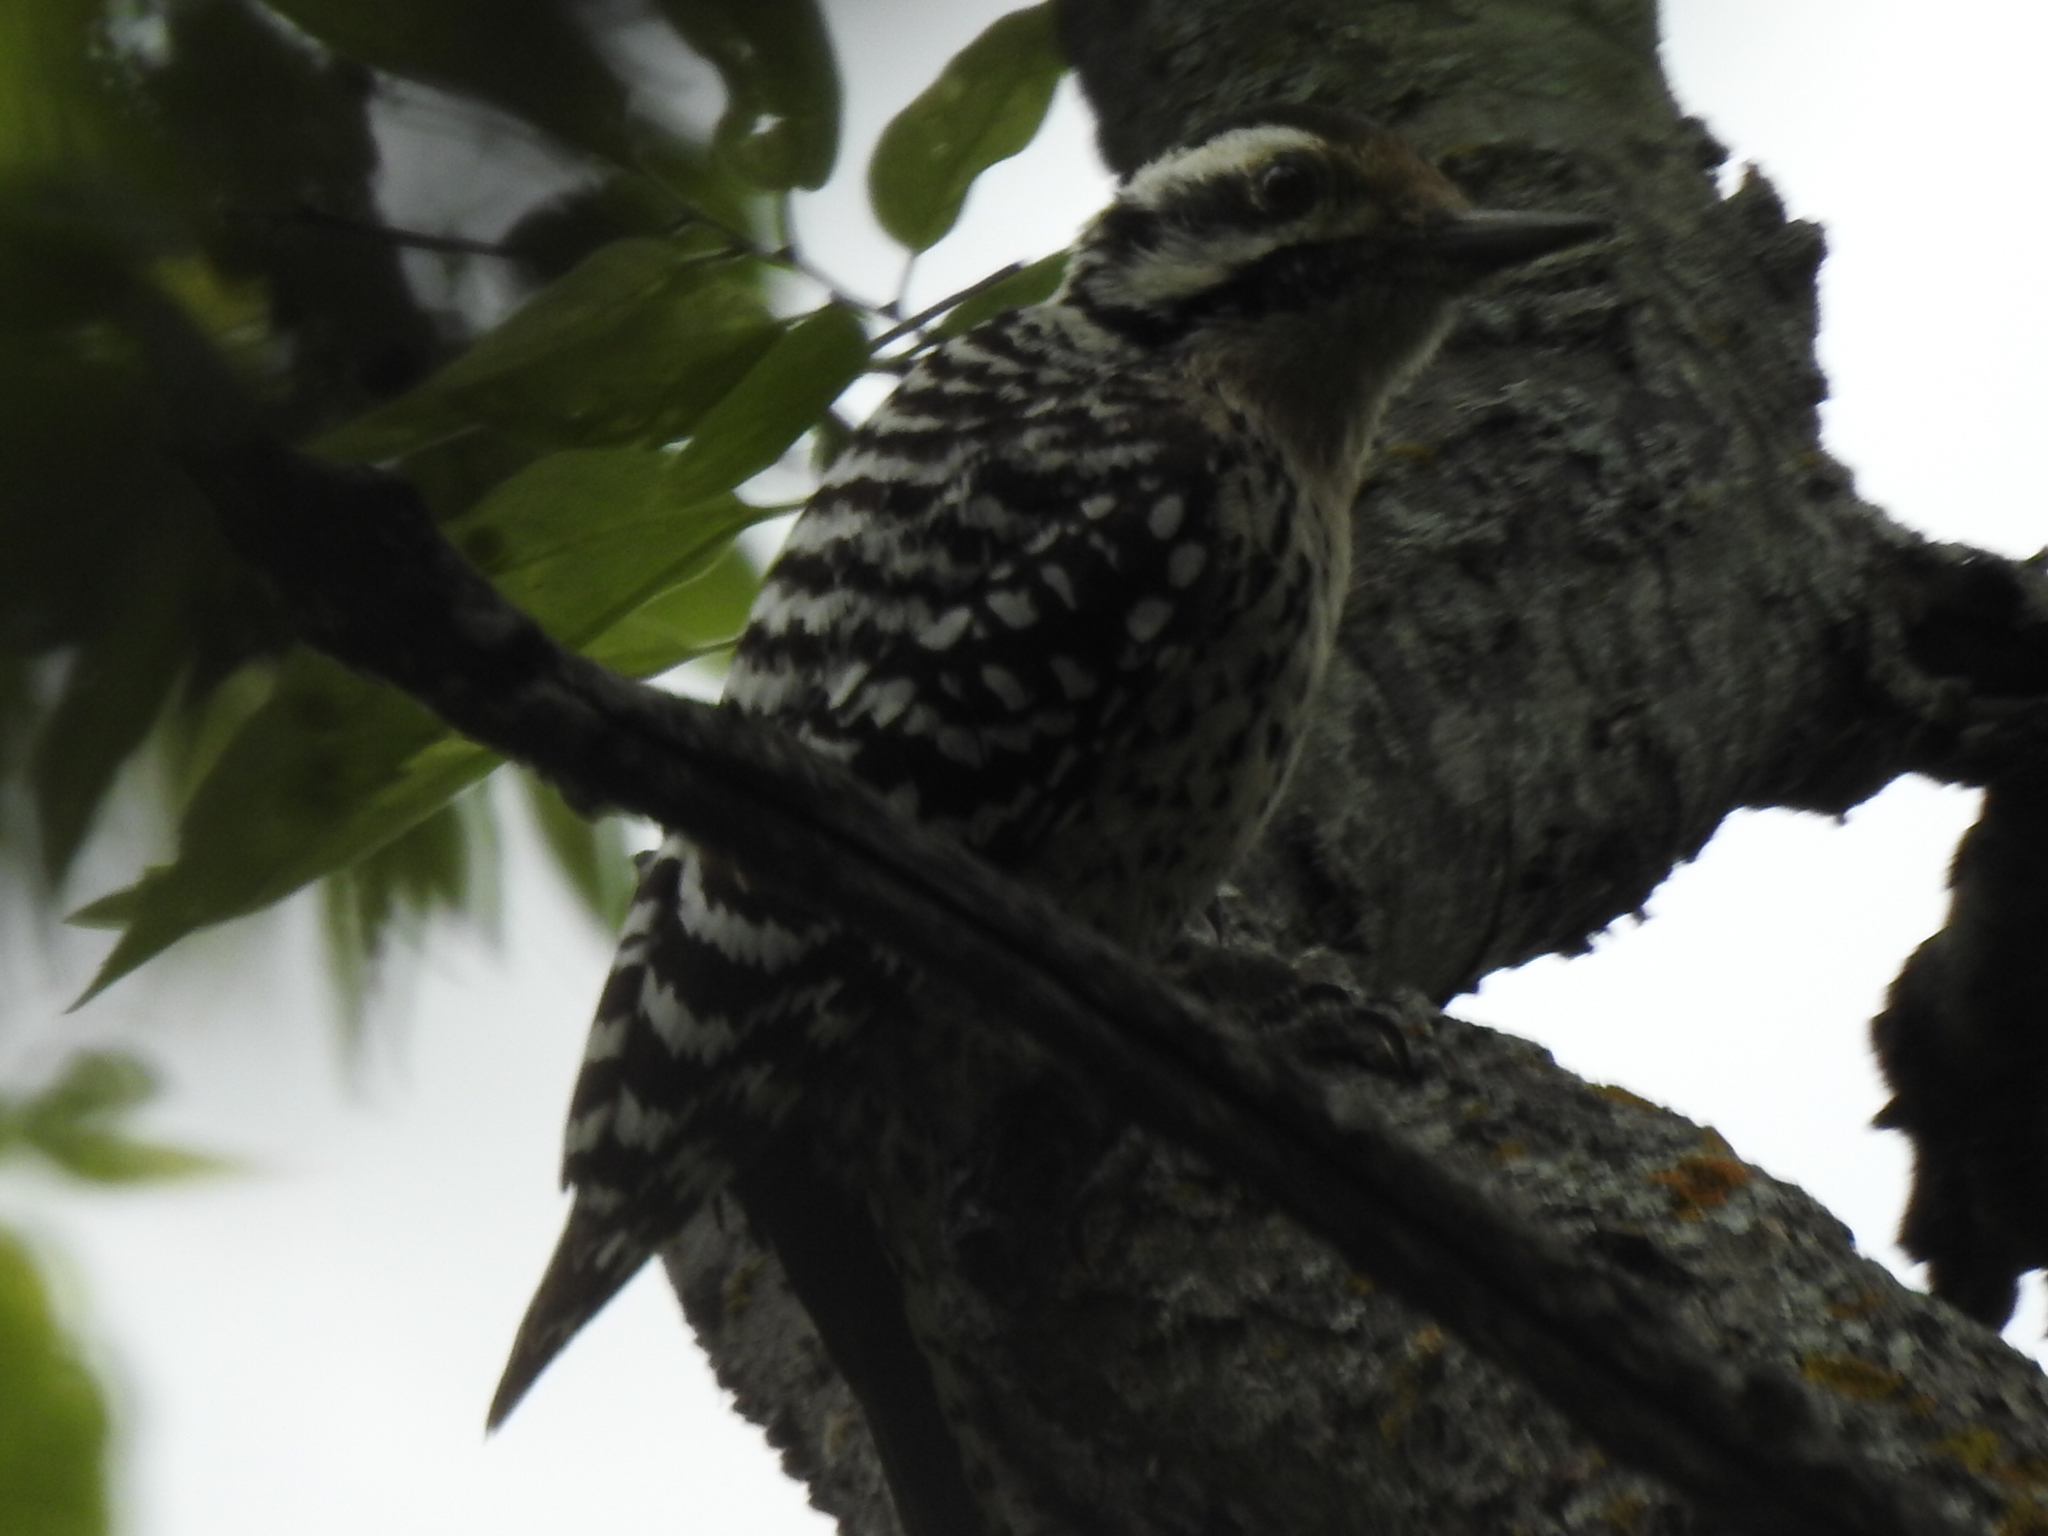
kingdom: Animalia
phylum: Chordata
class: Aves
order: Piciformes
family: Picidae
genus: Dryobates
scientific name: Dryobates scalaris
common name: Ladder-backed woodpecker
